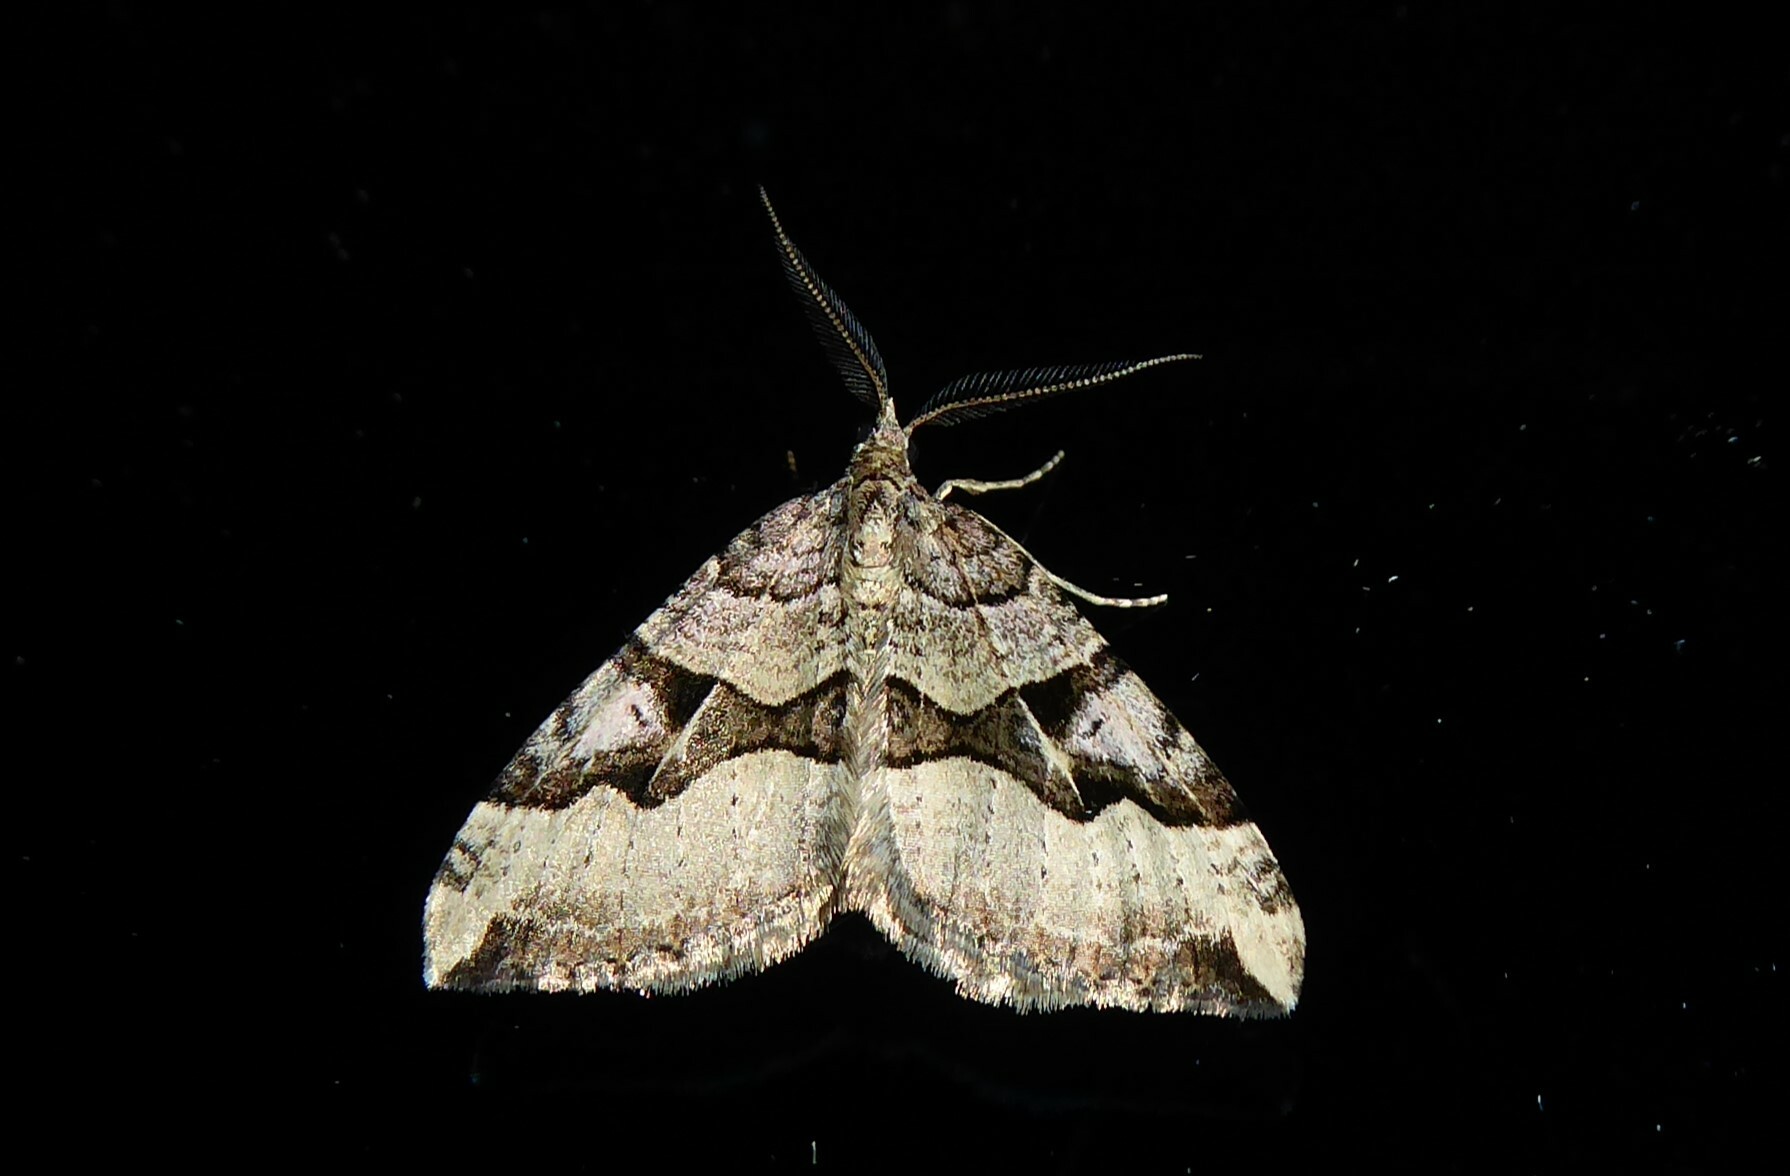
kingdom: Animalia
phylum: Arthropoda
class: Insecta
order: Lepidoptera
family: Geometridae
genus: Xanthorhoe
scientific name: Xanthorhoe semifissata
